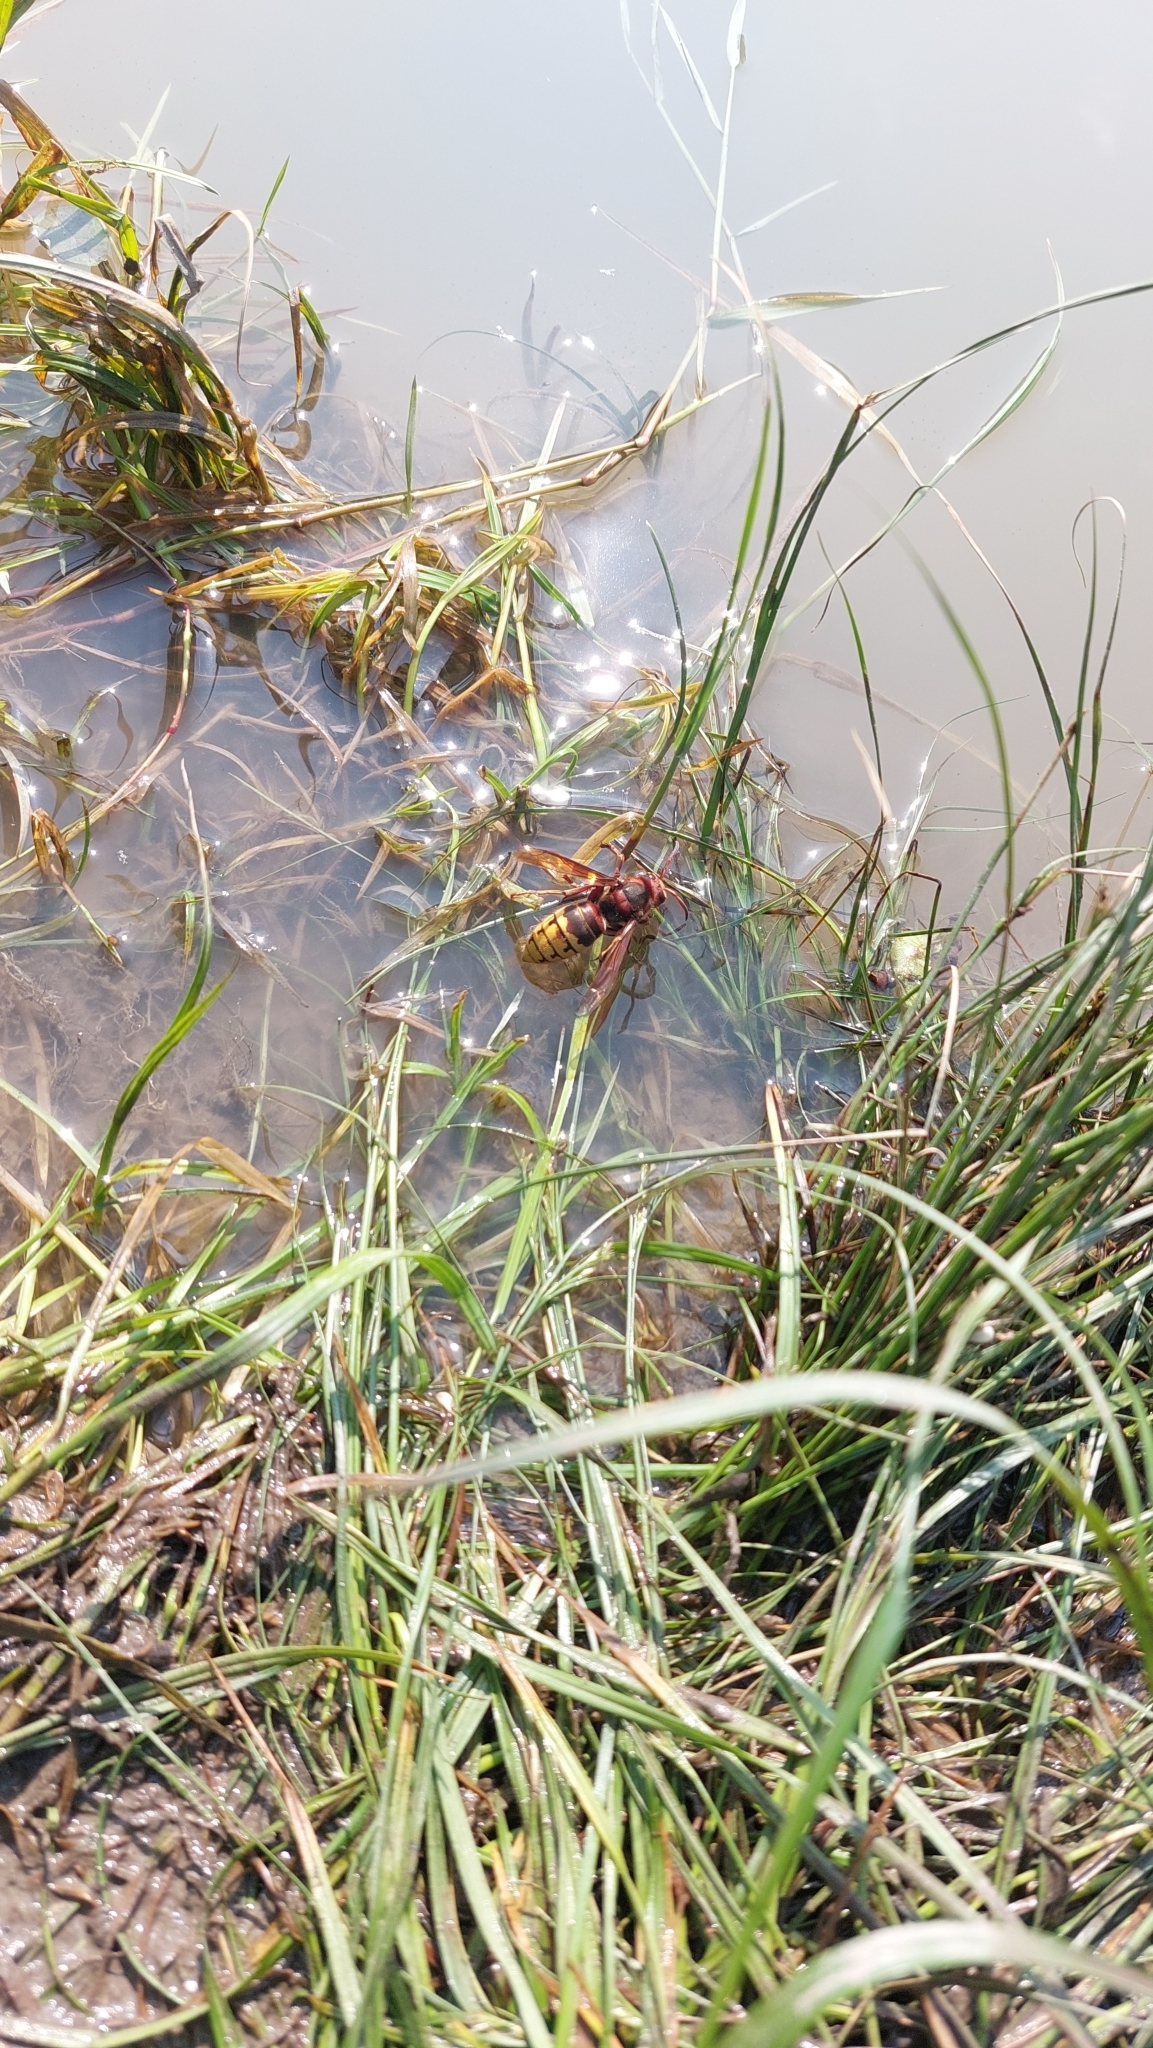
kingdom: Animalia
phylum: Arthropoda
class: Insecta
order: Hymenoptera
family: Vespidae
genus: Vespa
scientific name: Vespa crabro
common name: Hornet
